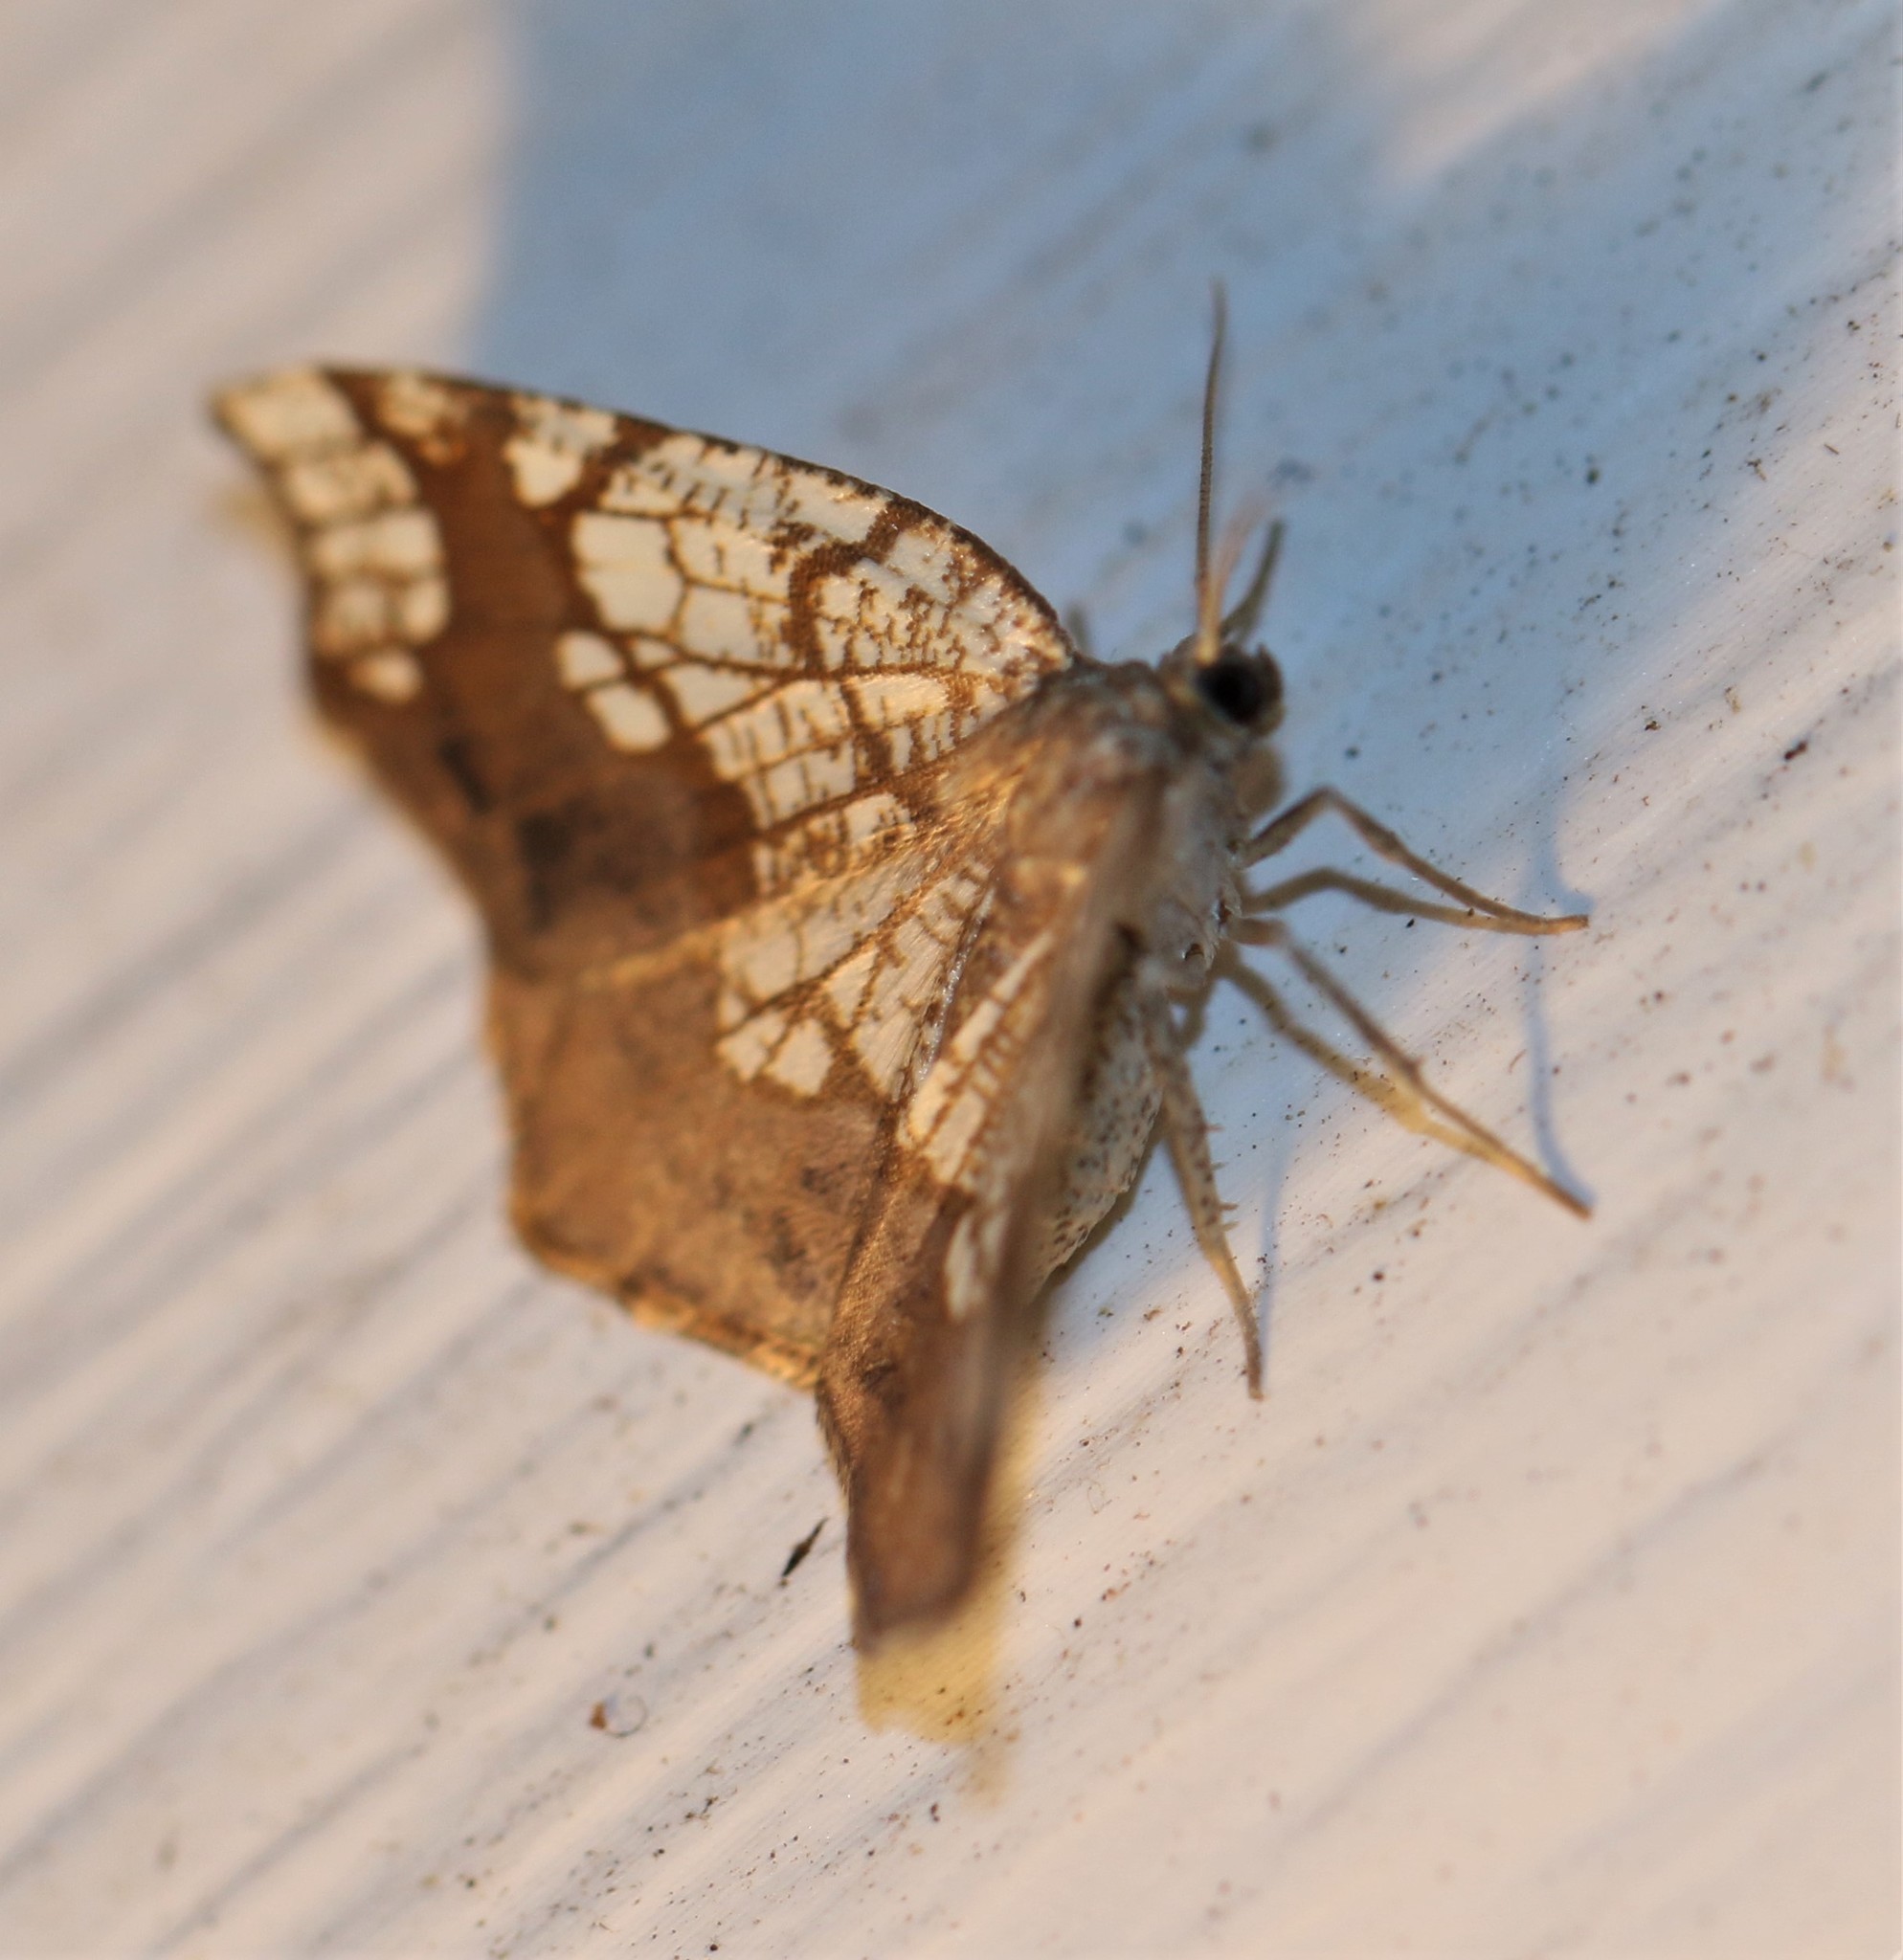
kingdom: Animalia
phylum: Arthropoda
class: Insecta
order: Lepidoptera
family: Geometridae
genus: Nematocampa
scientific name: Nematocampa resistaria
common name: Horned spanworm moth
